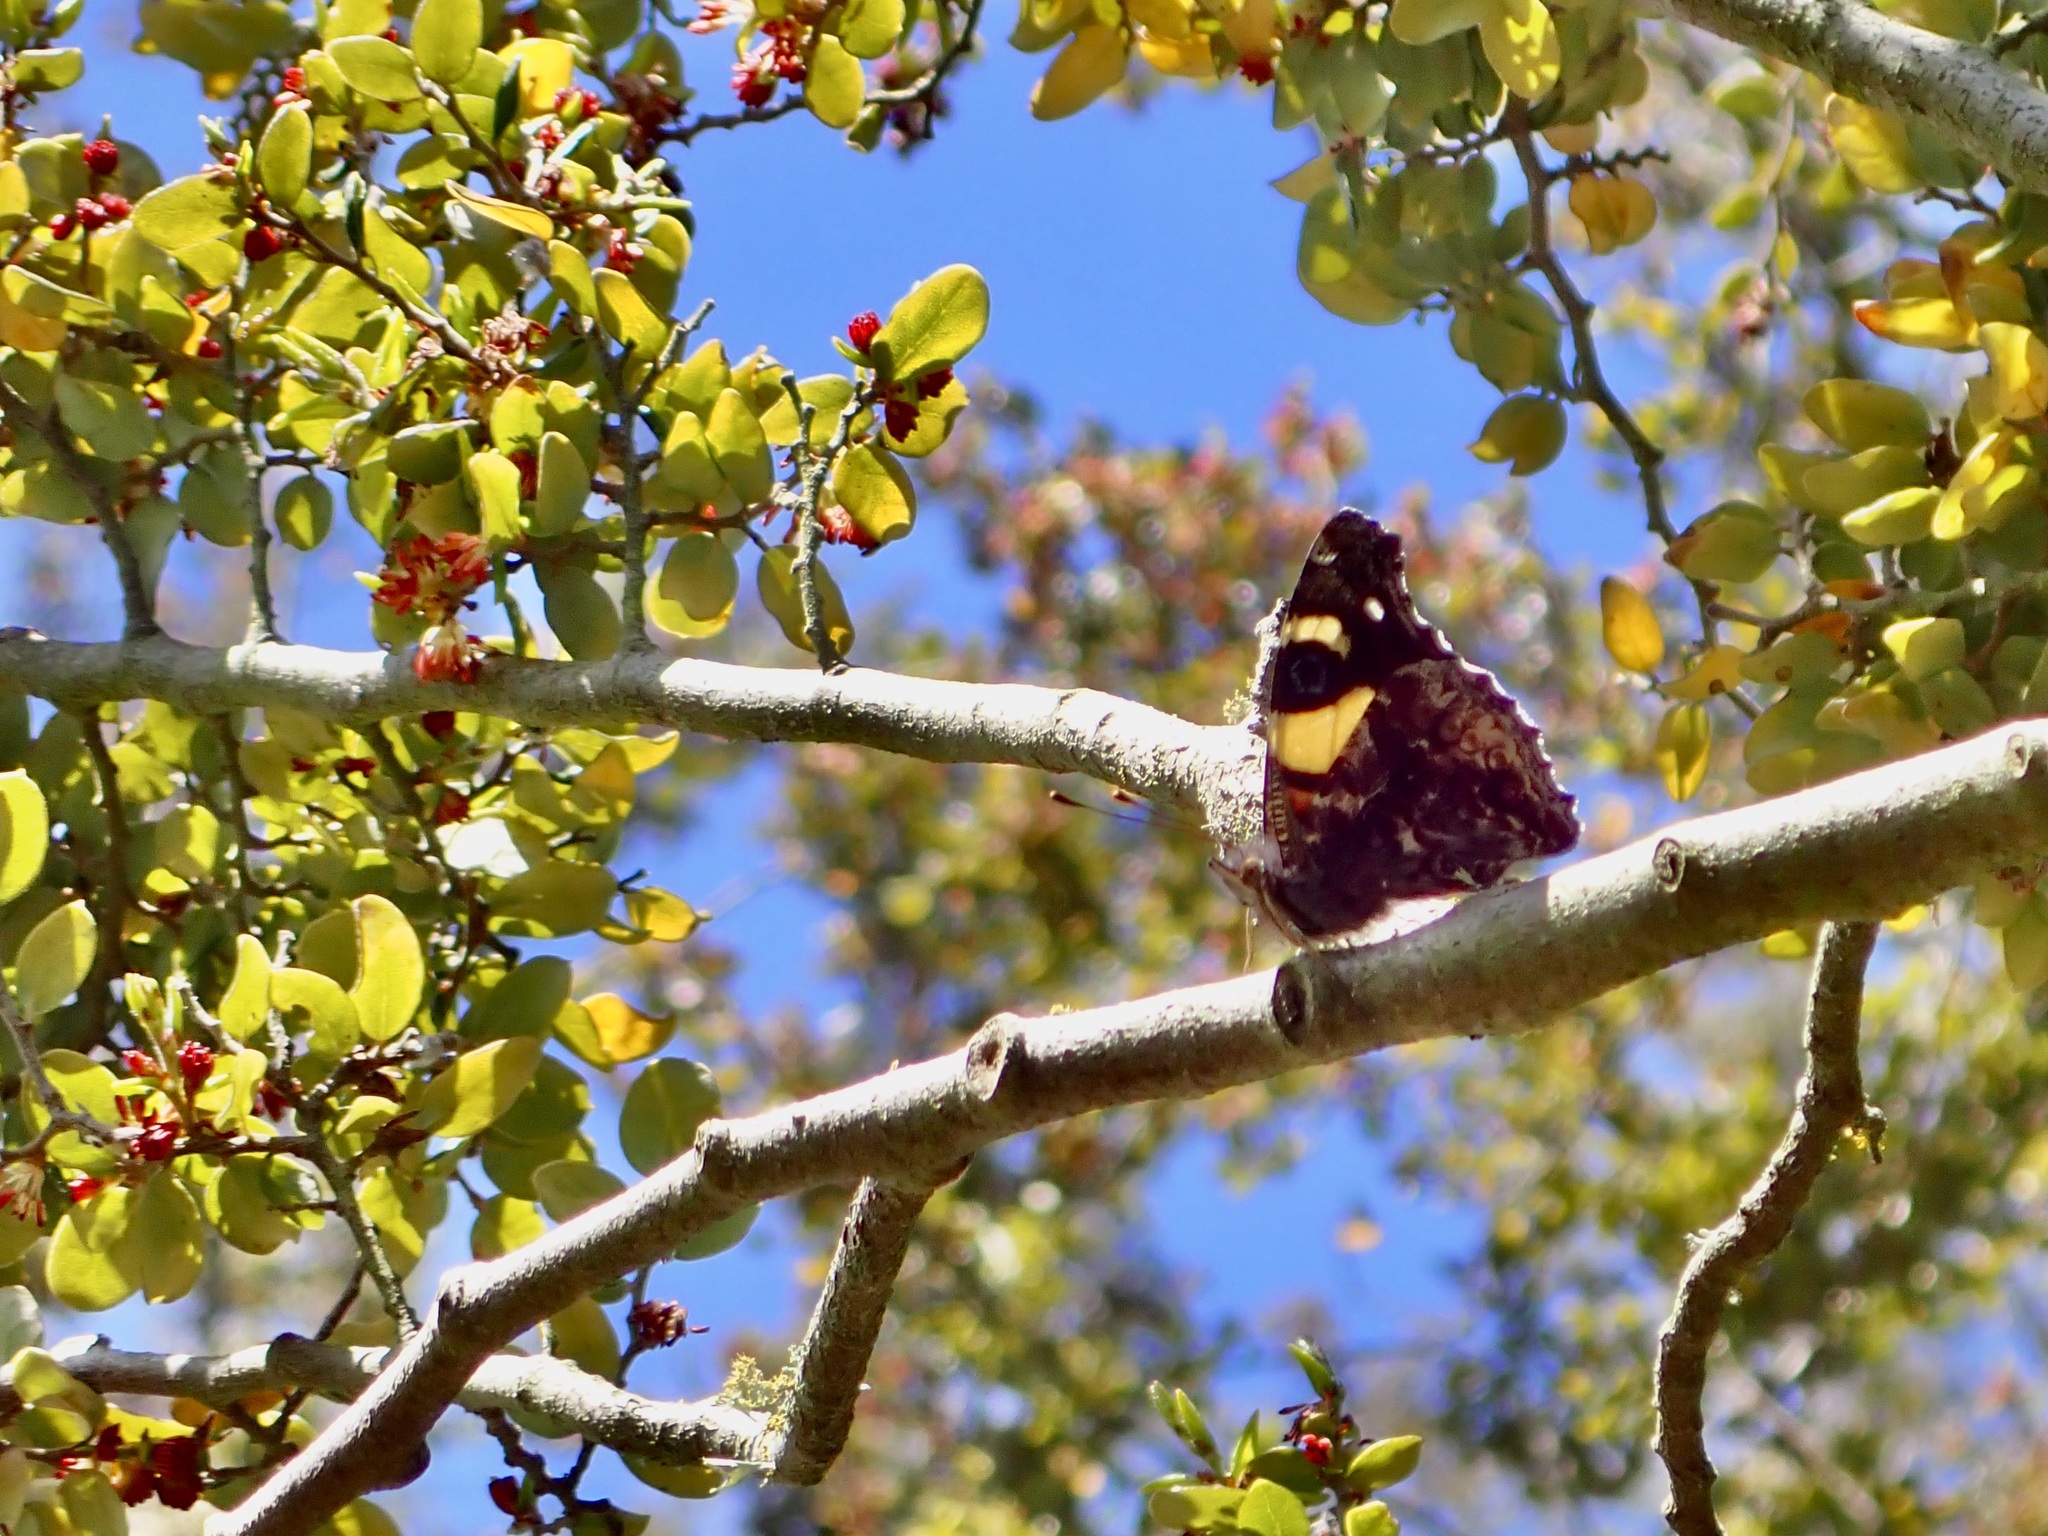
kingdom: Animalia
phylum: Arthropoda
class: Insecta
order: Lepidoptera
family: Nymphalidae
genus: Vanessa
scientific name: Vanessa itea
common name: Yellow admiral
